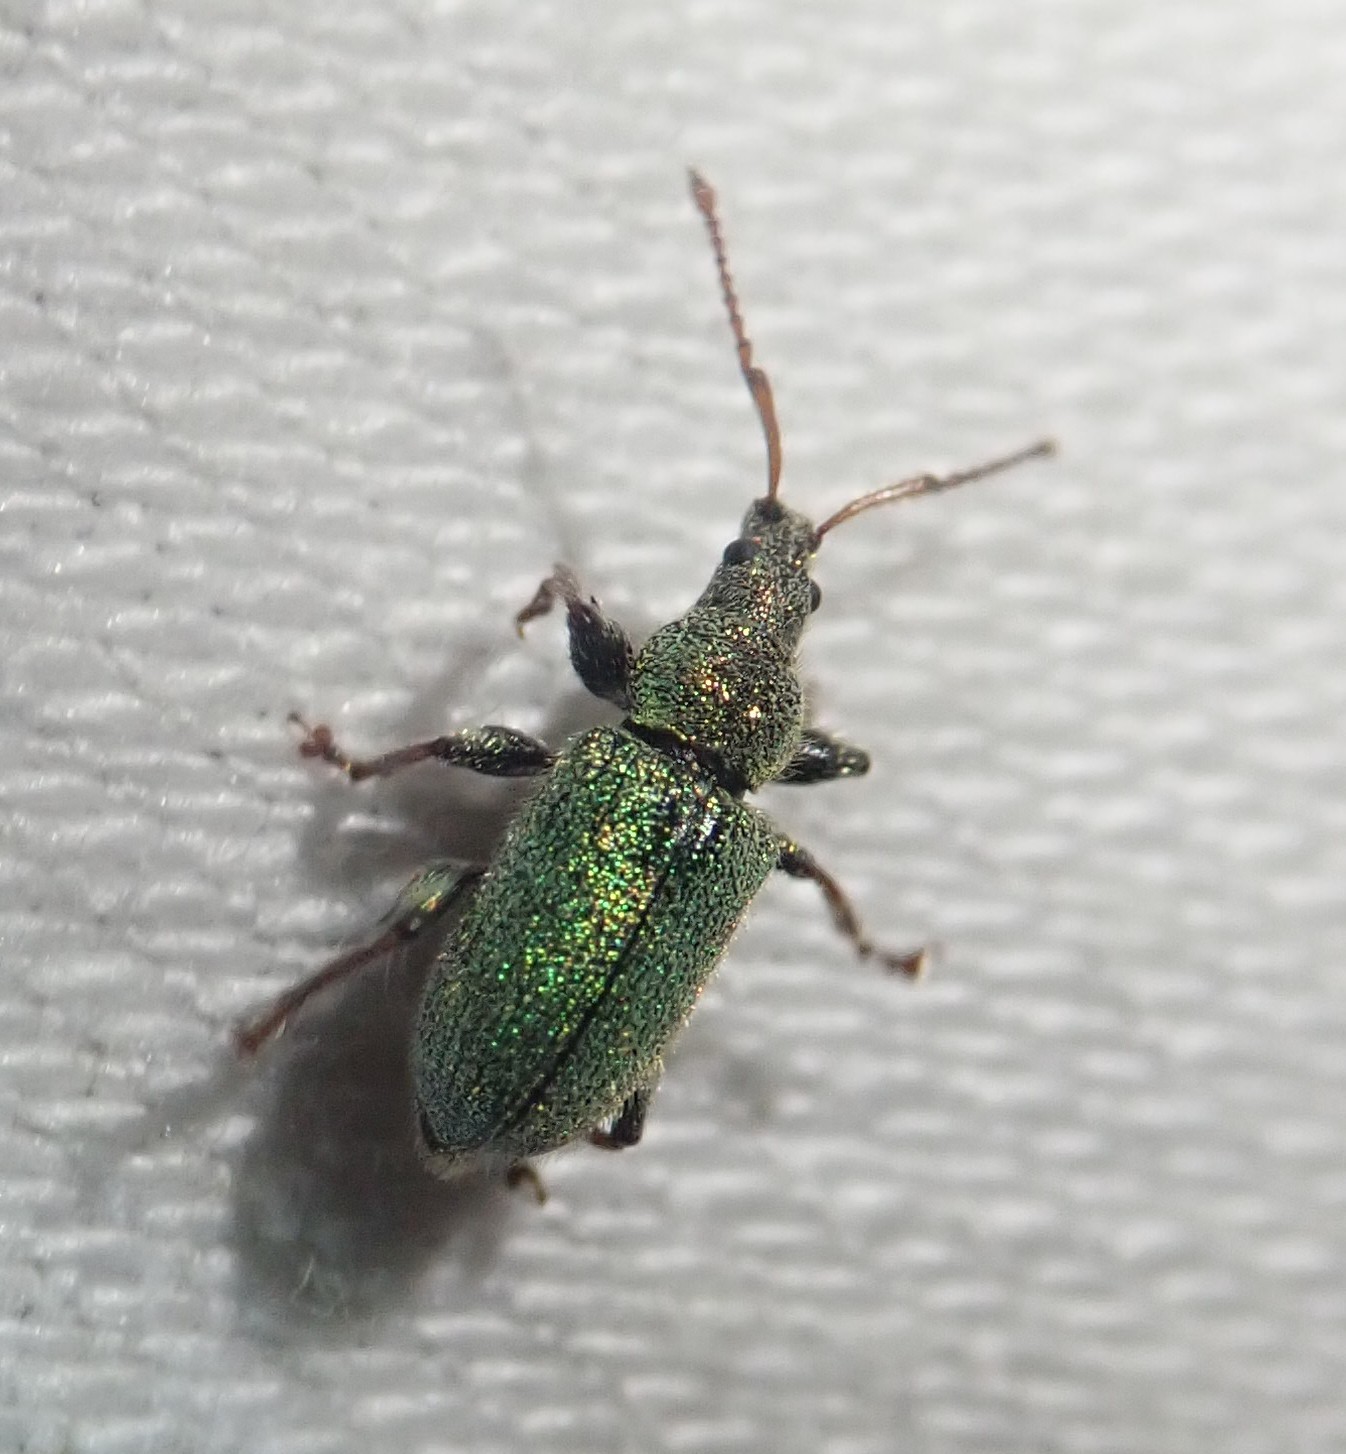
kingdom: Animalia
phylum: Arthropoda
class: Insecta
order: Coleoptera
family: Curculionidae
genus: Phyllobius
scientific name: Phyllobius betulinus
